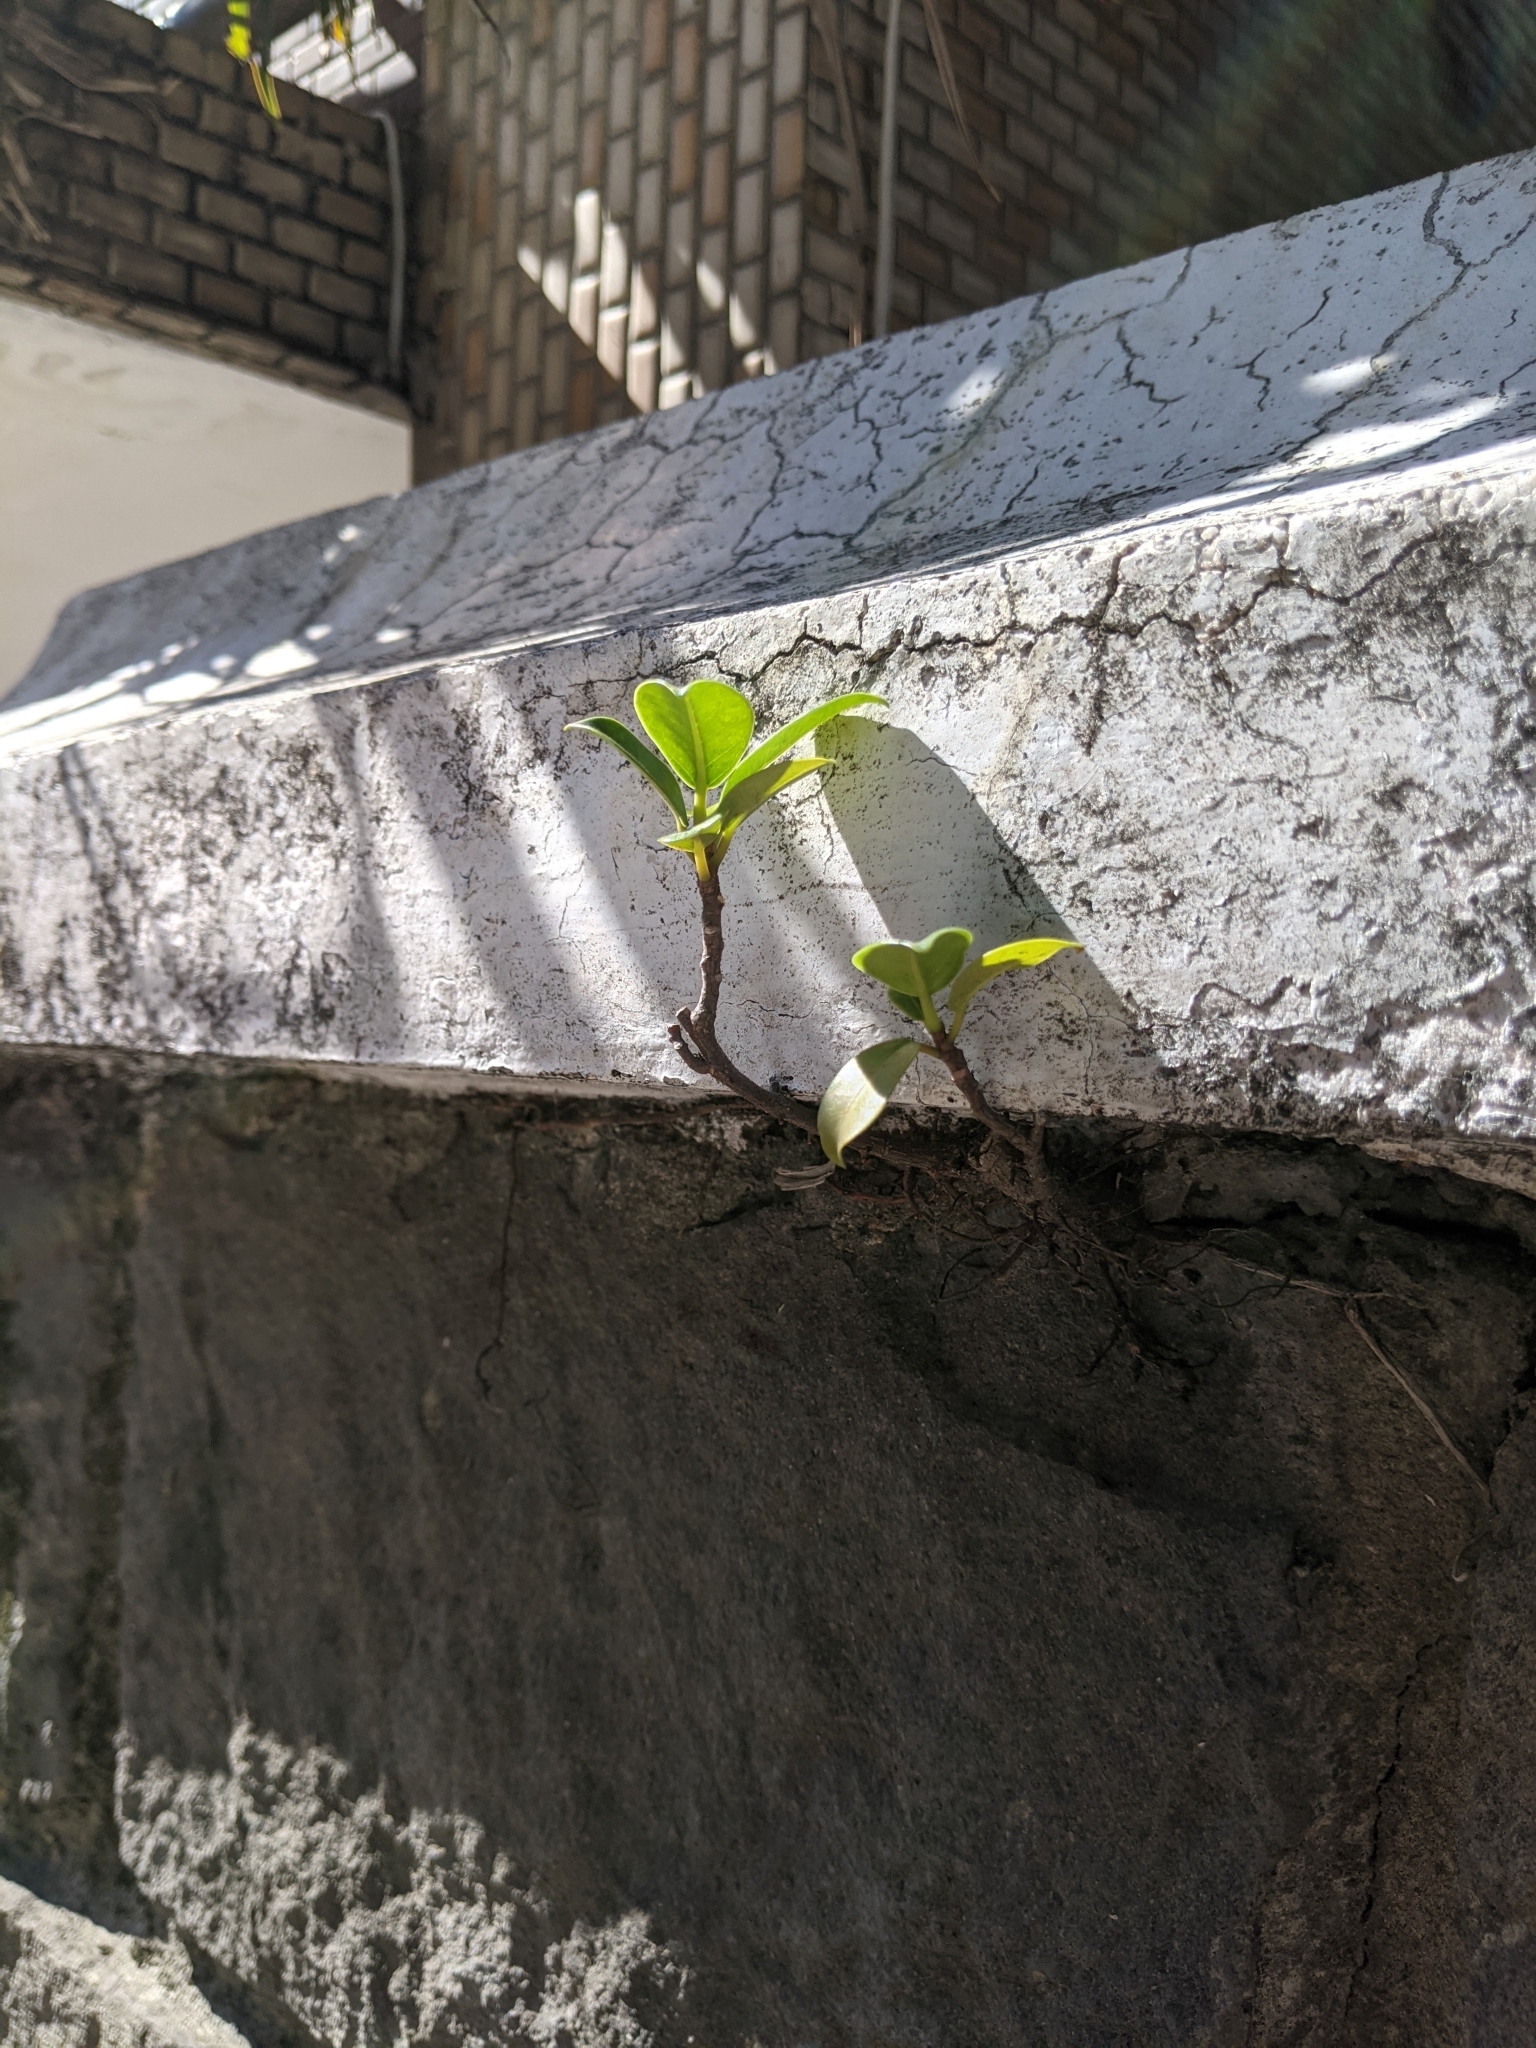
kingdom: Plantae
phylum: Tracheophyta
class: Magnoliopsida
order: Rosales
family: Moraceae
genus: Ficus
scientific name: Ficus microcarpa
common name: Chinese banyan
